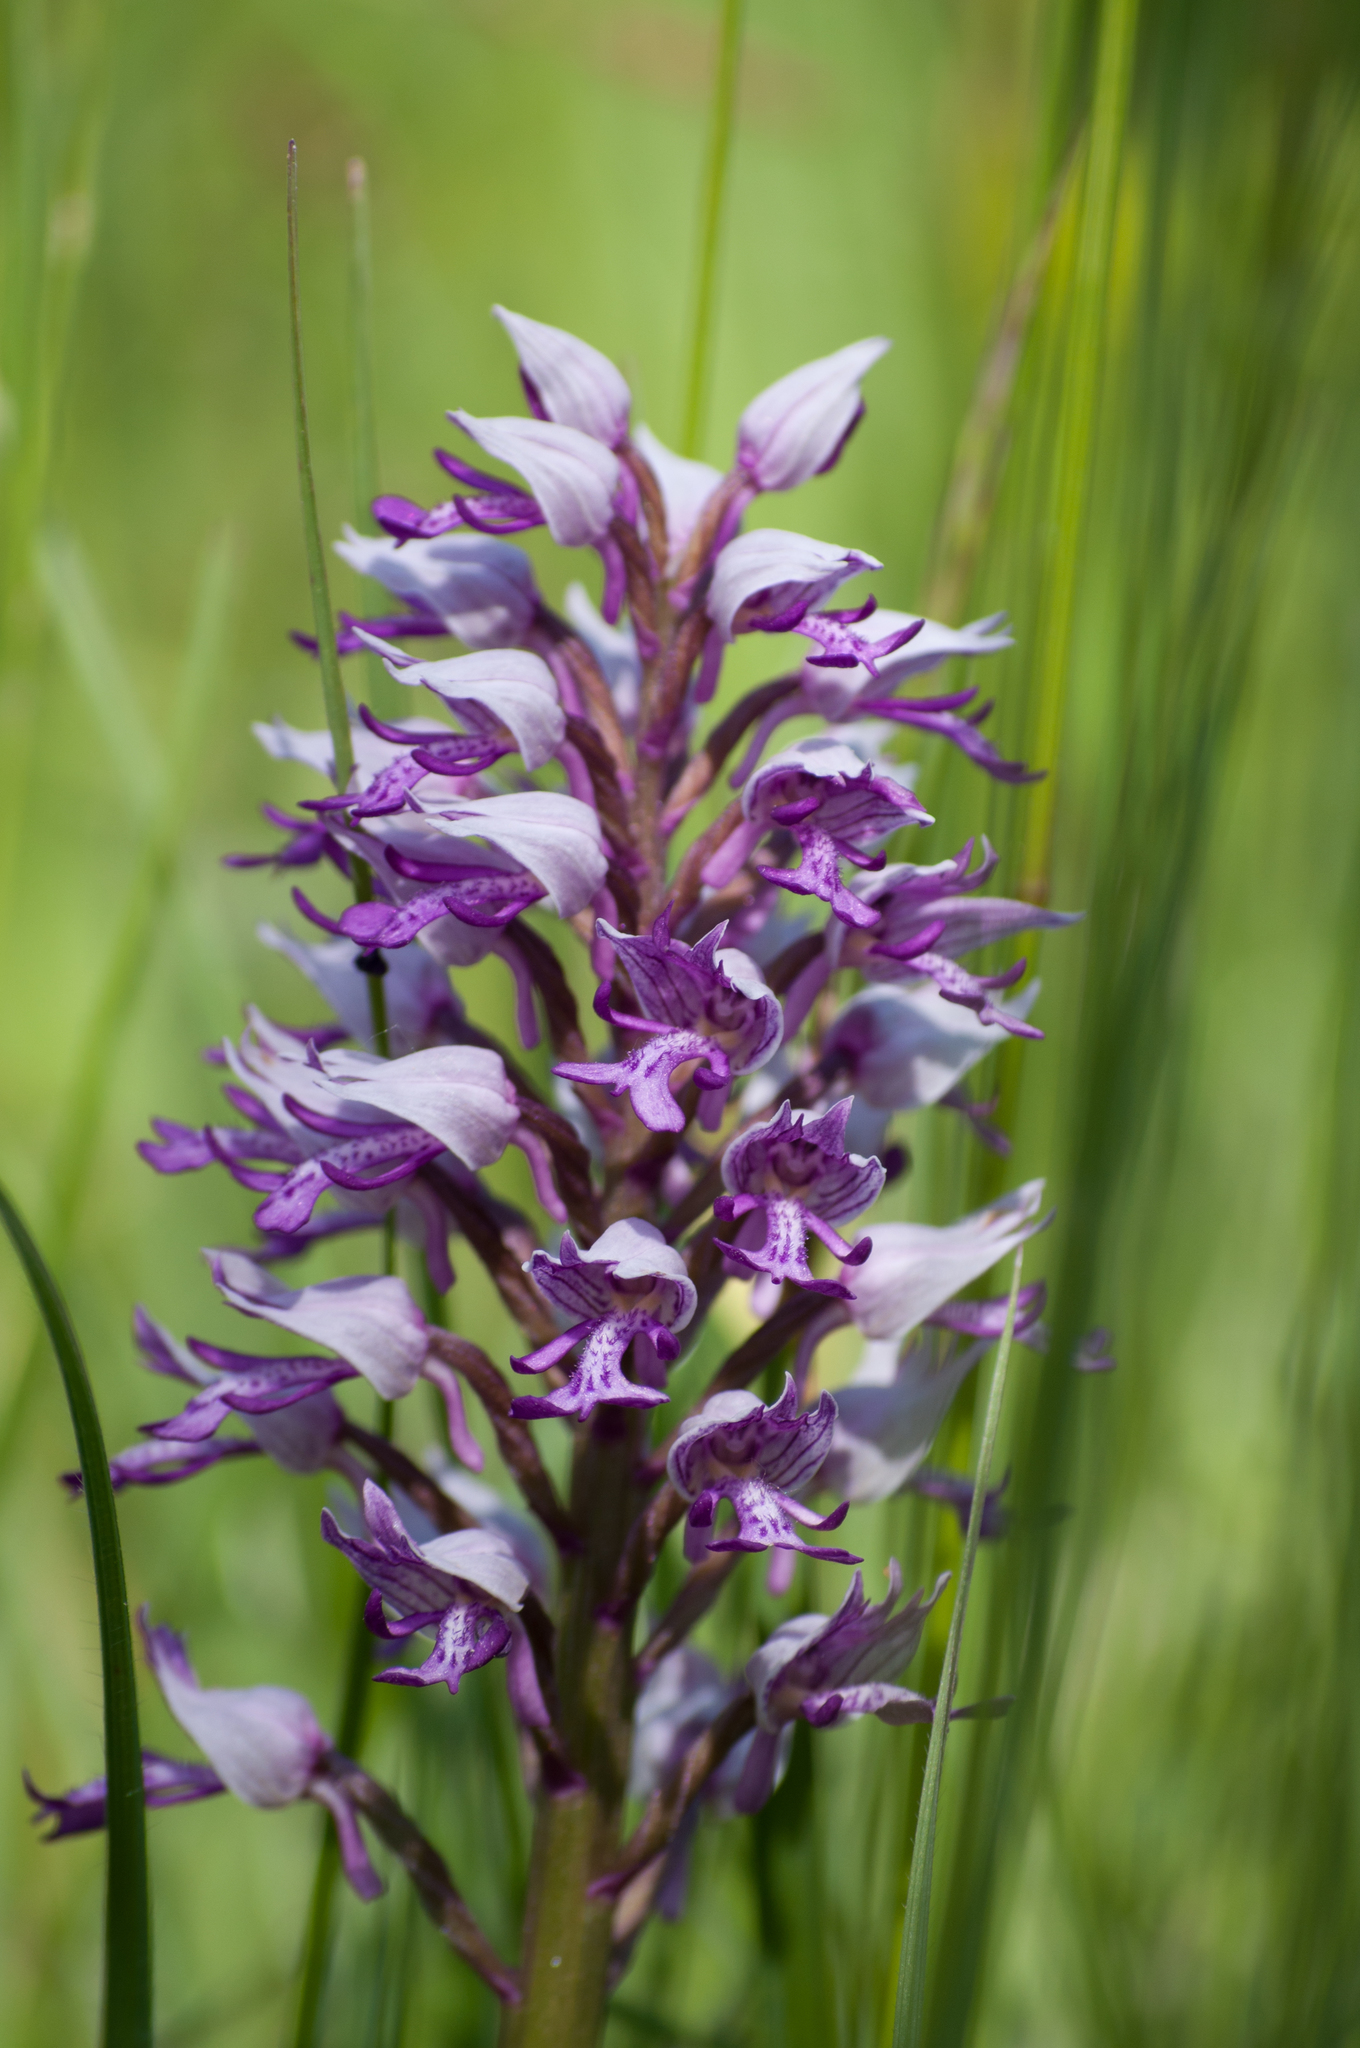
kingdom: Plantae
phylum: Tracheophyta
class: Liliopsida
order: Asparagales
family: Orchidaceae
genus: Orchis
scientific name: Orchis militaris
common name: Military orchid
